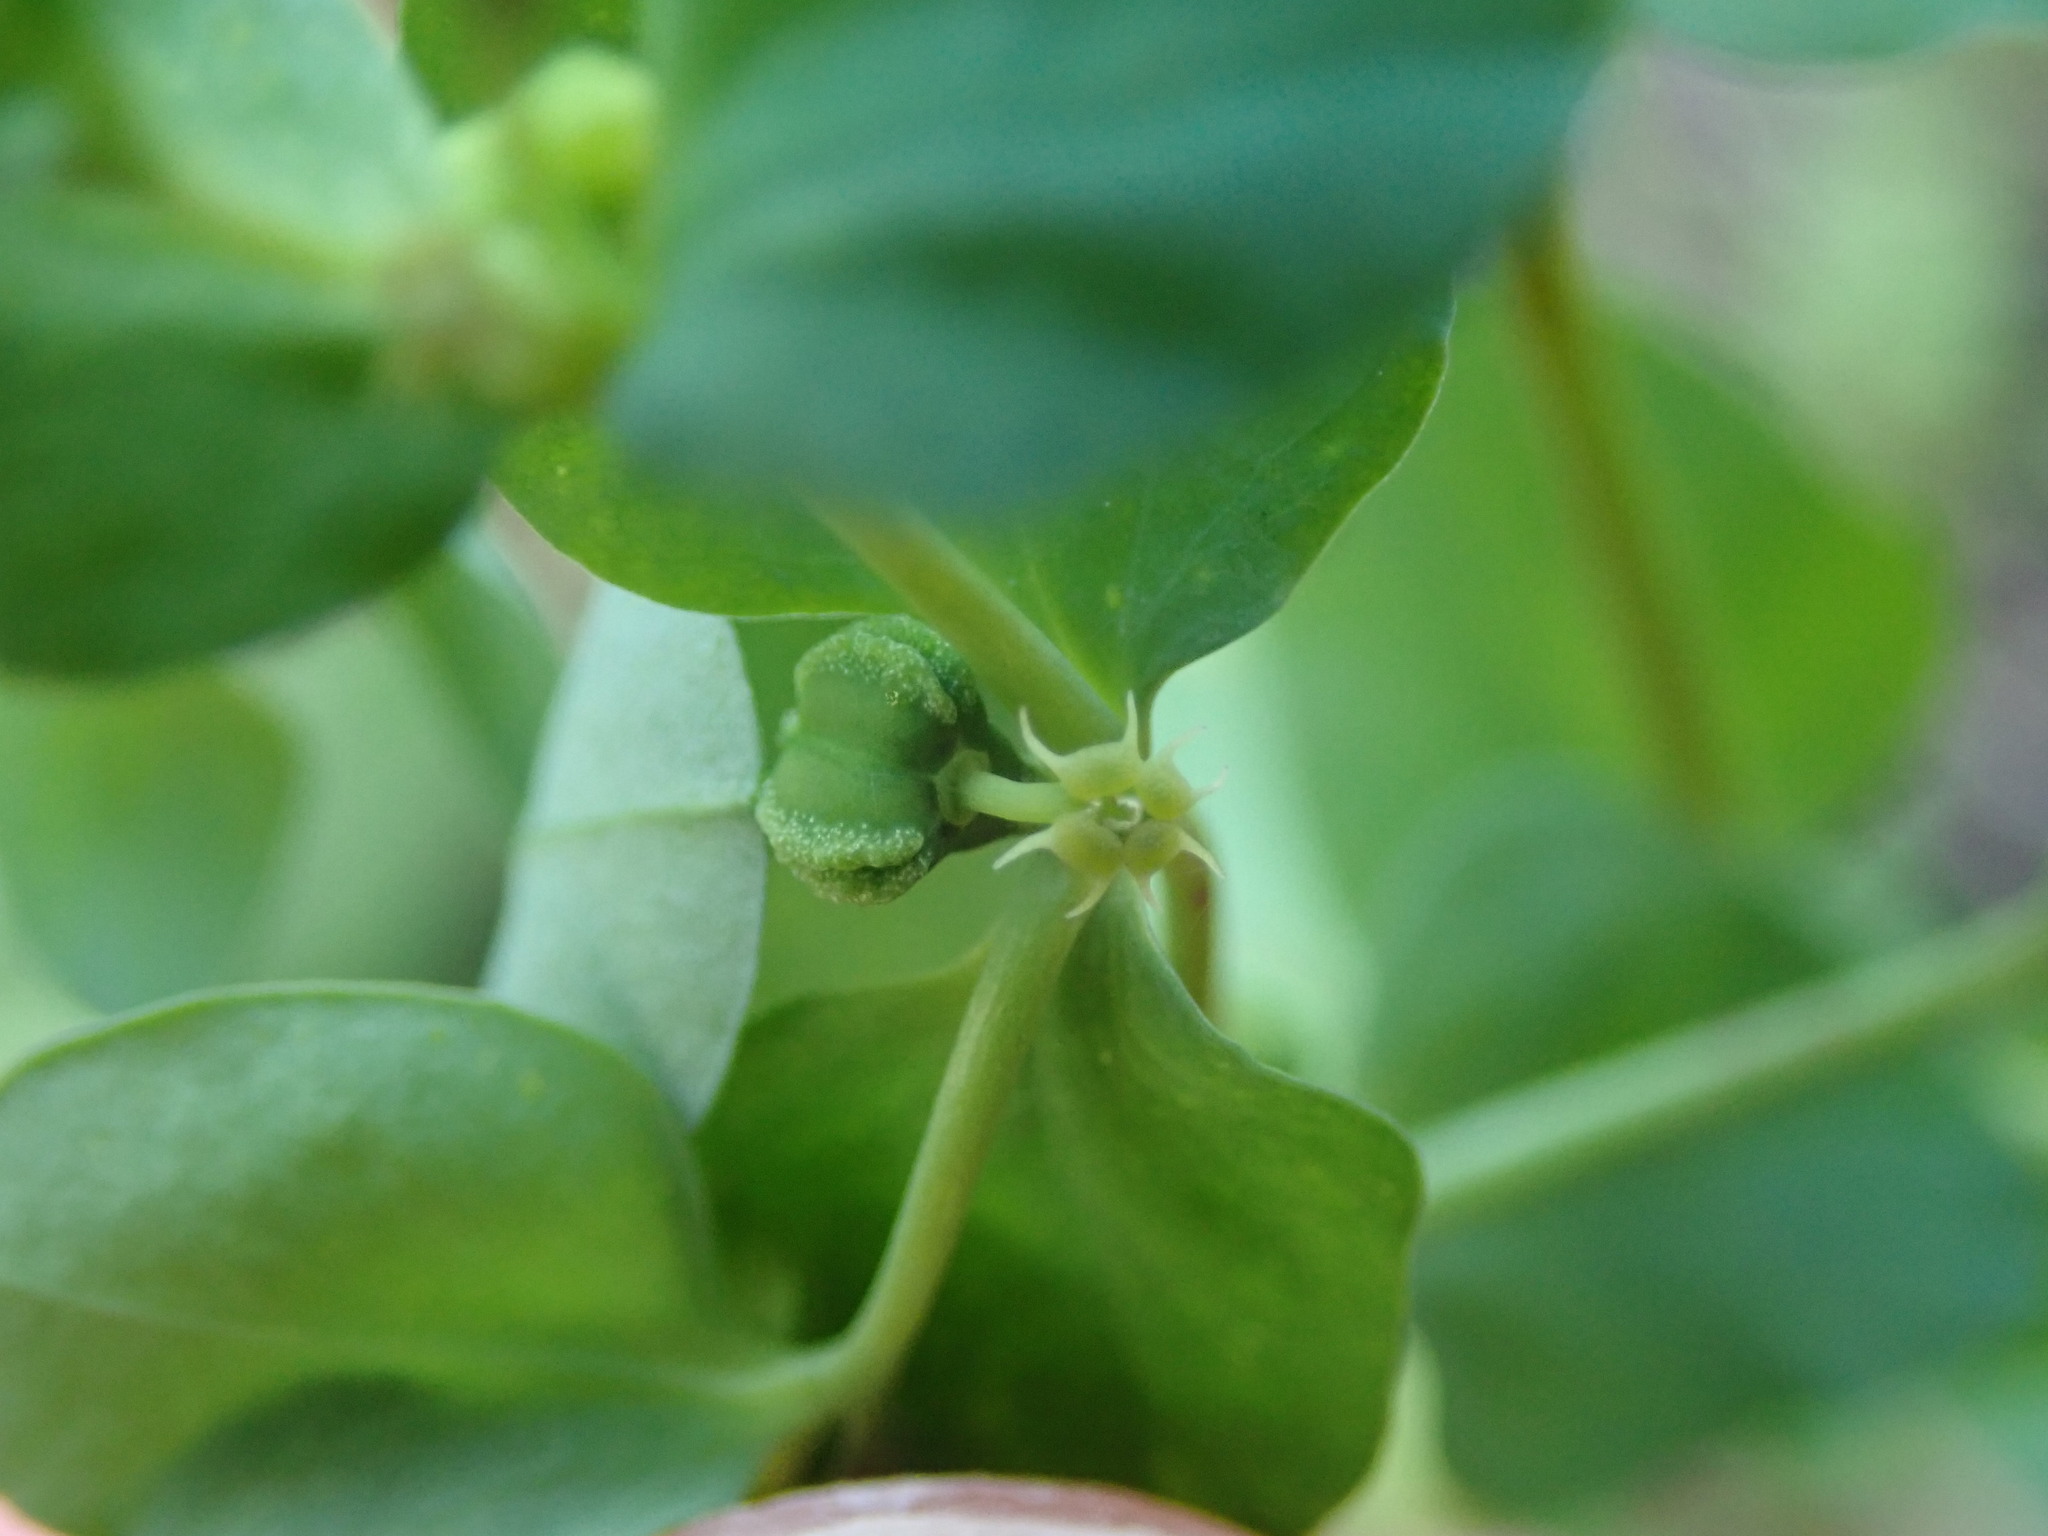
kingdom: Plantae
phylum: Tracheophyta
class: Magnoliopsida
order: Malpighiales
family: Euphorbiaceae
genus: Euphorbia
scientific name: Euphorbia peplus
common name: Petty spurge
